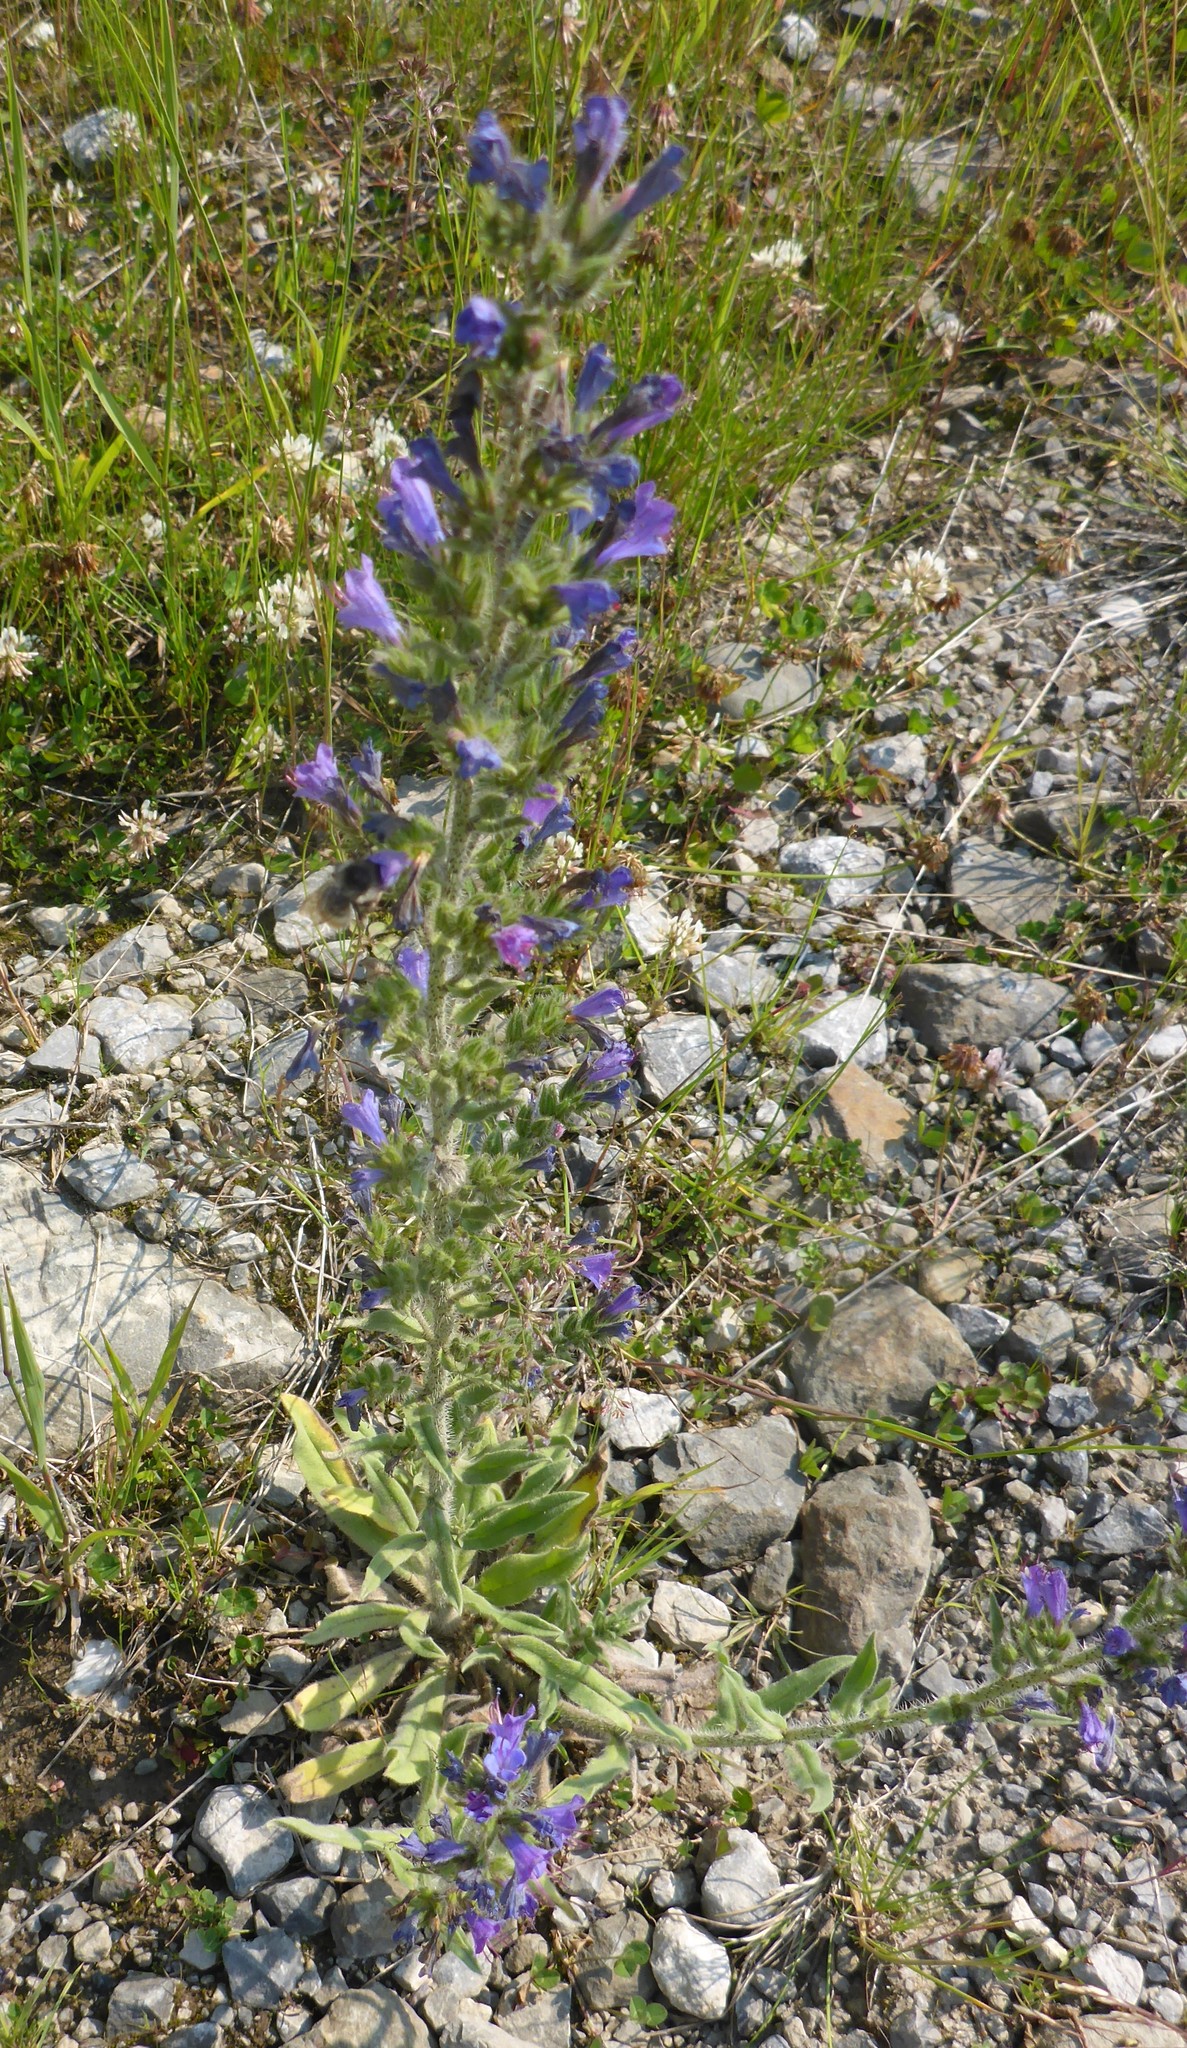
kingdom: Plantae
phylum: Tracheophyta
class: Magnoliopsida
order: Boraginales
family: Boraginaceae
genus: Echium
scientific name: Echium vulgare
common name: Common viper's bugloss
